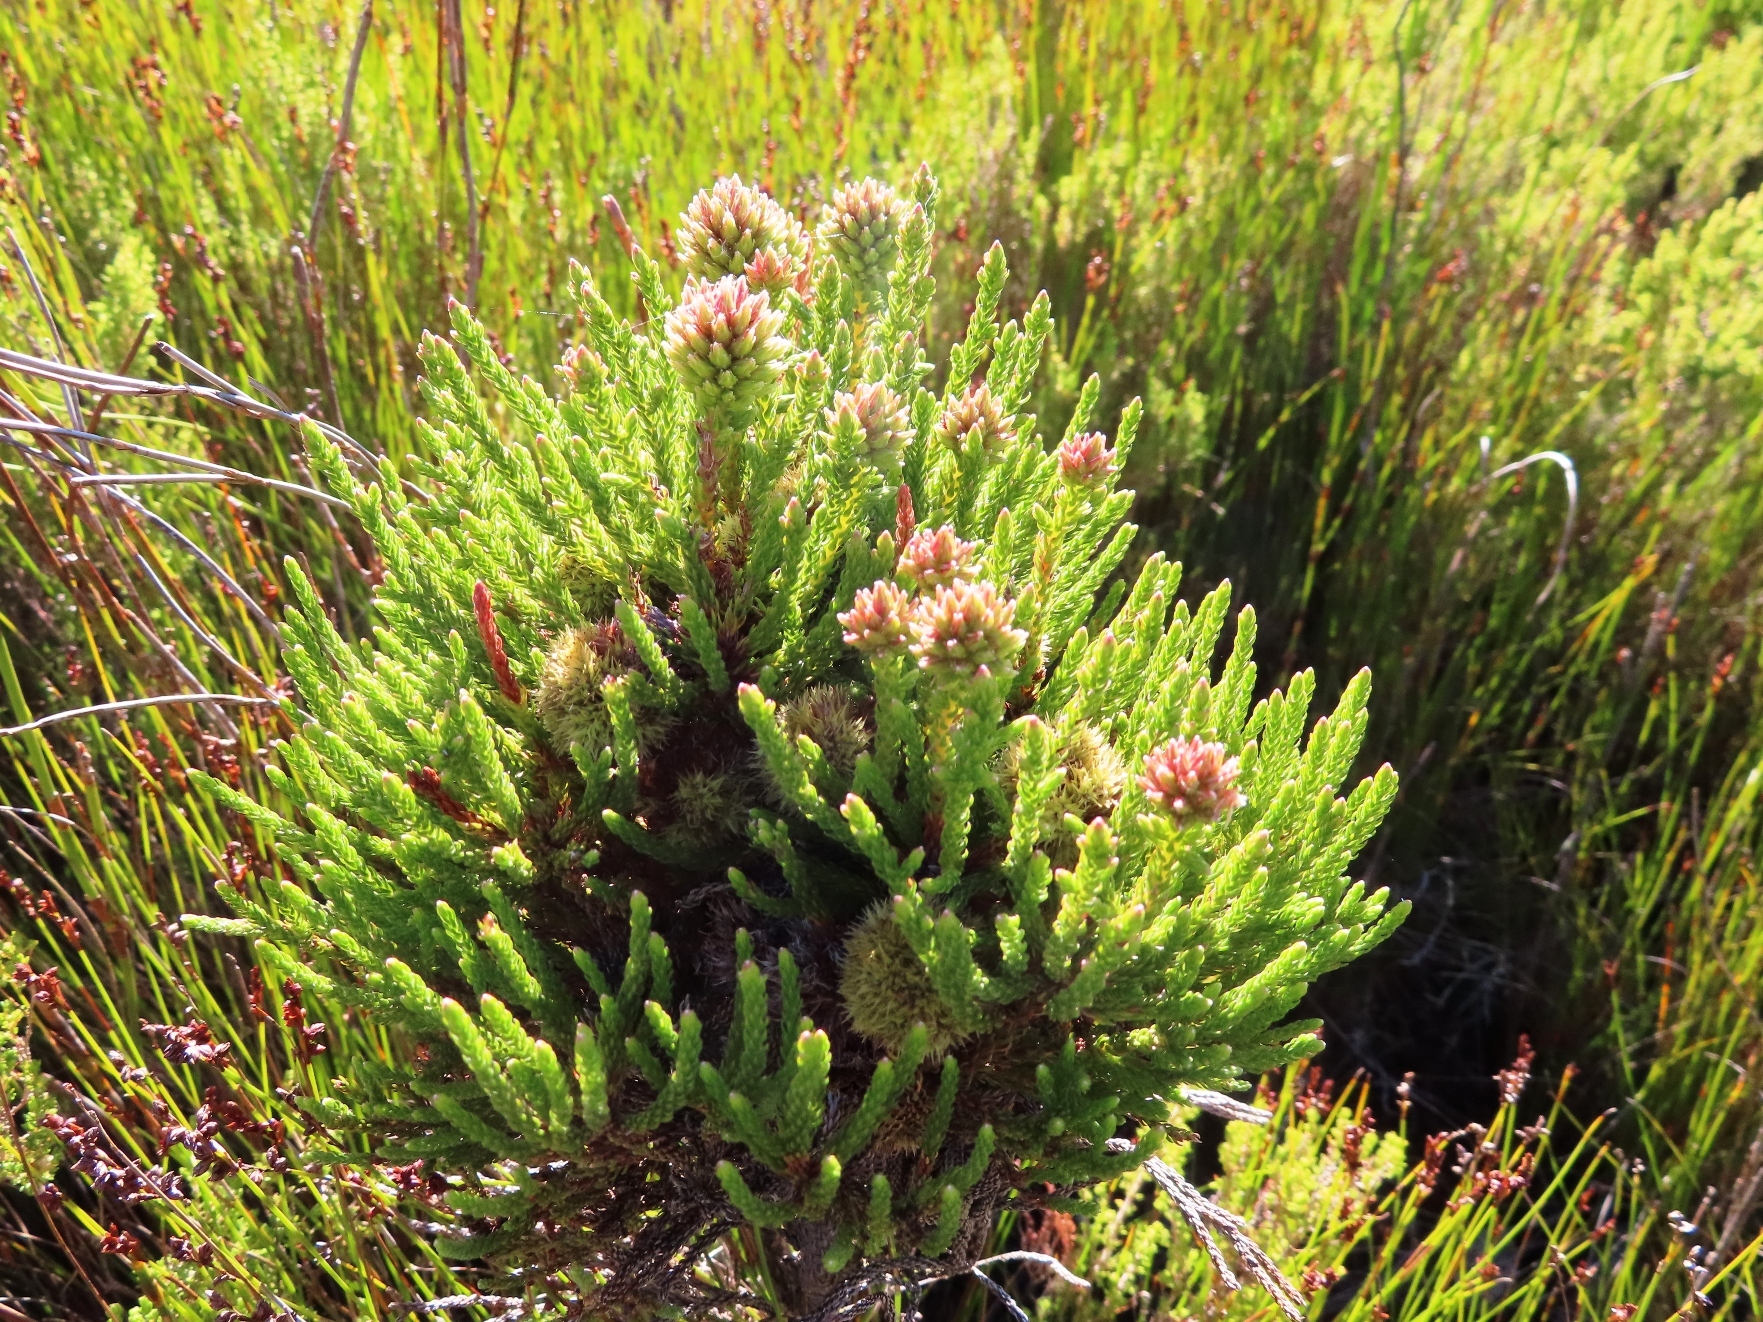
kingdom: Plantae
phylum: Tracheophyta
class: Magnoliopsida
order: Bruniales
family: Bruniaceae
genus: Brunia
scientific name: Brunia fragarioides
